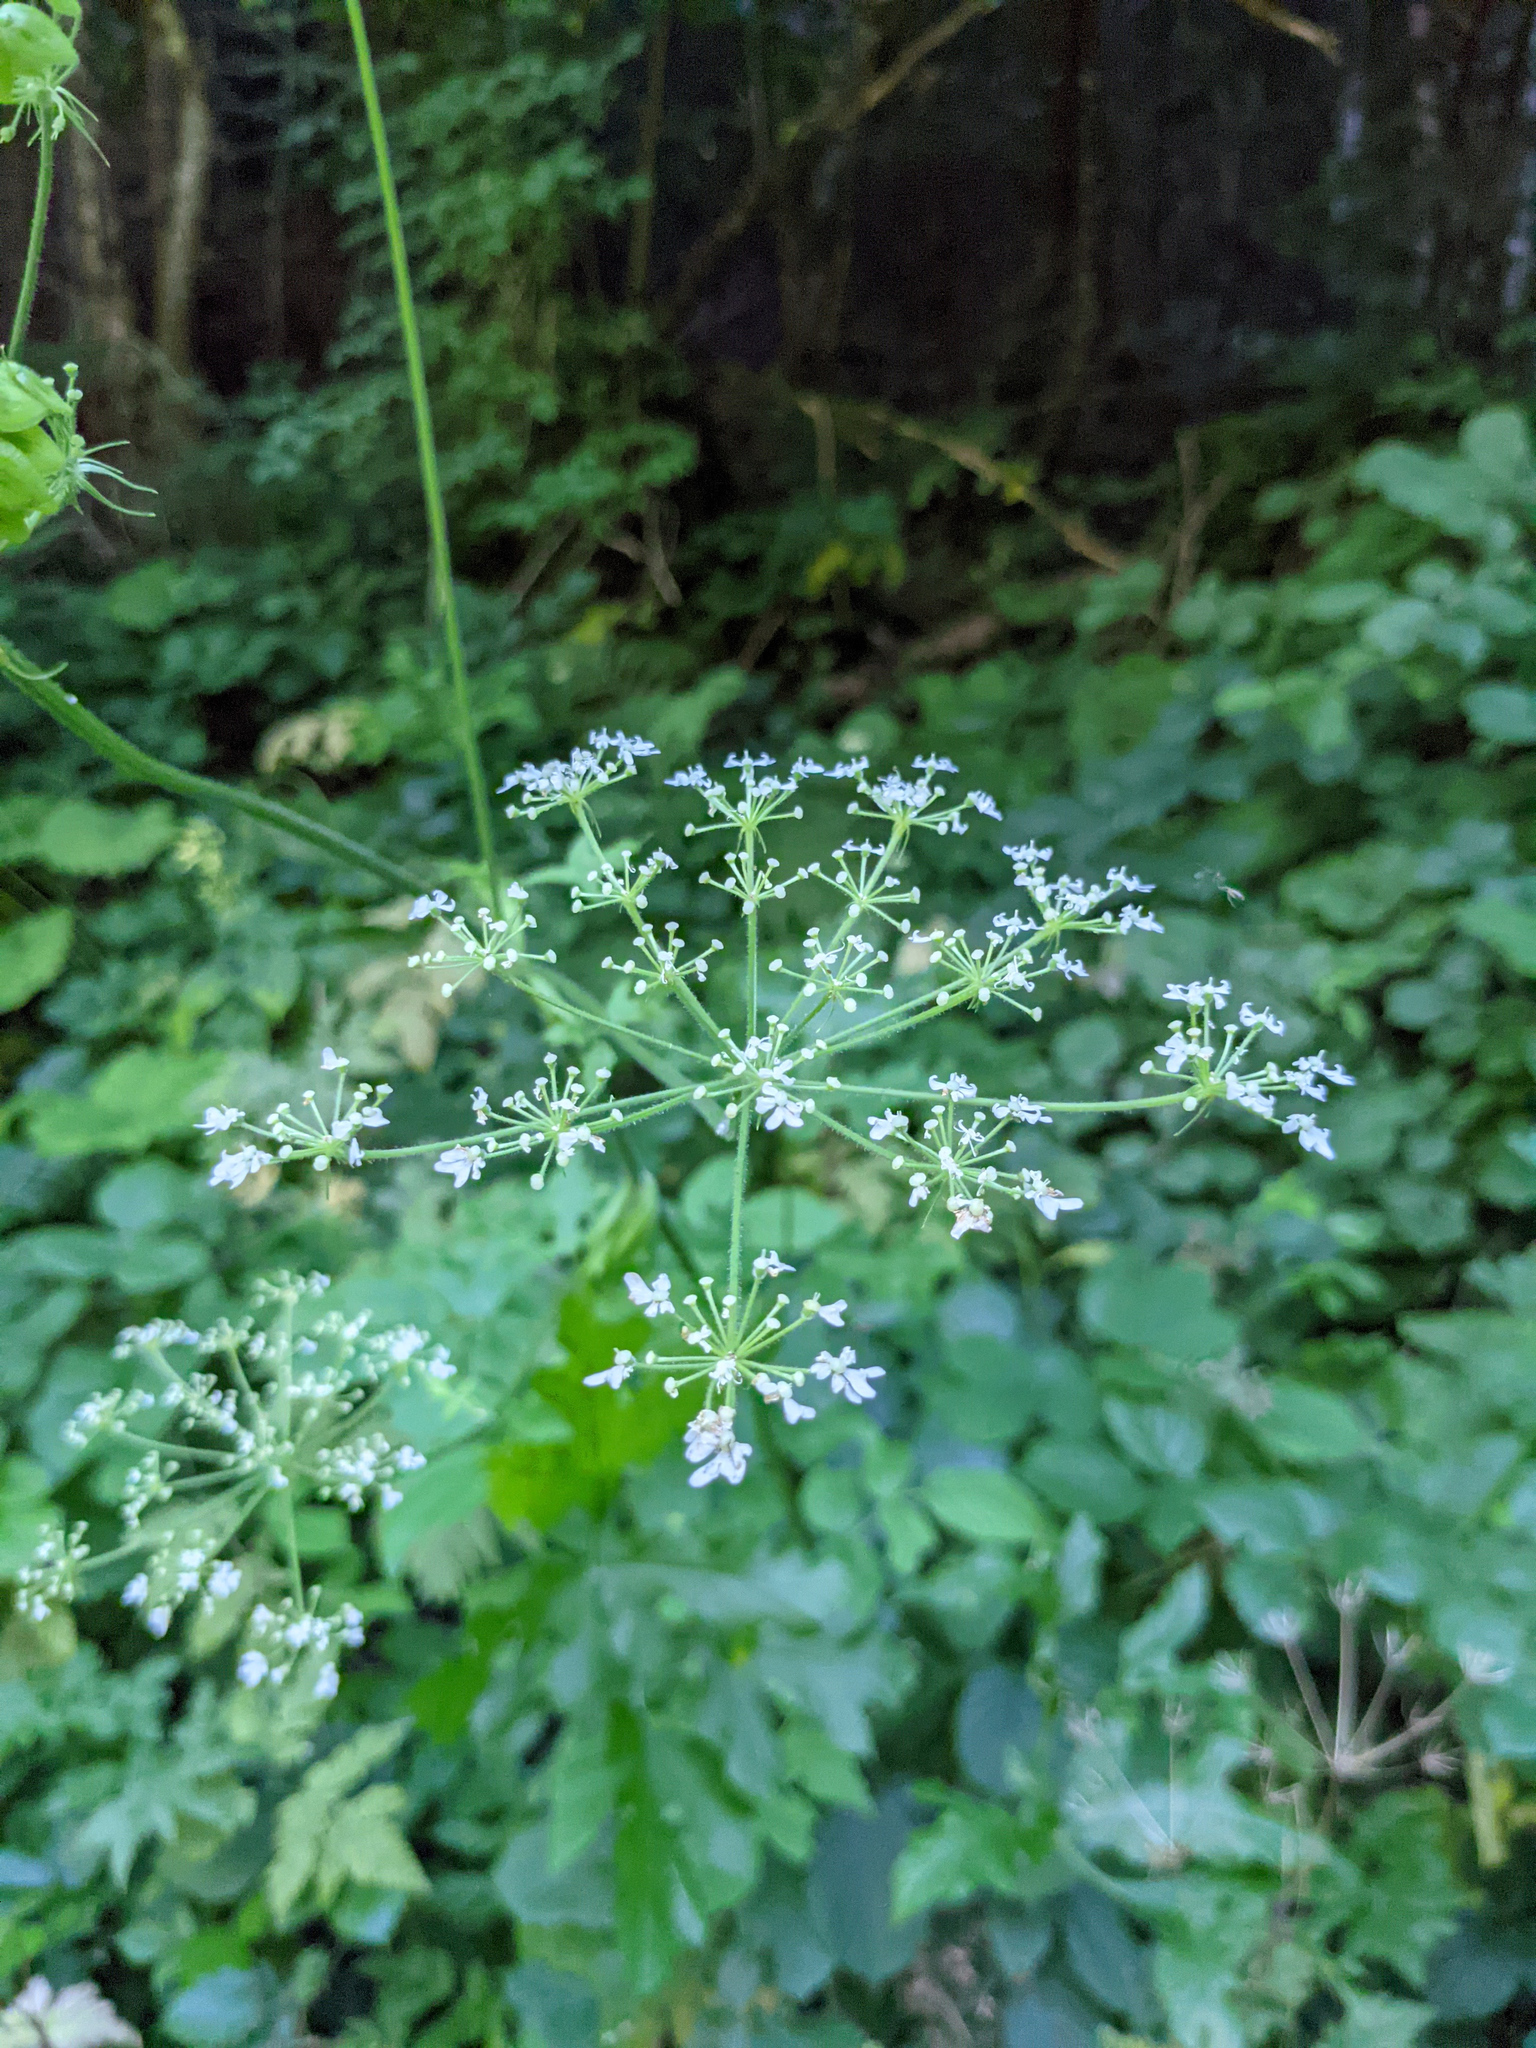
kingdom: Plantae
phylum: Tracheophyta
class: Magnoliopsida
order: Apiales
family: Apiaceae
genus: Heracleum
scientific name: Heracleum sphondylium
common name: Hogweed
